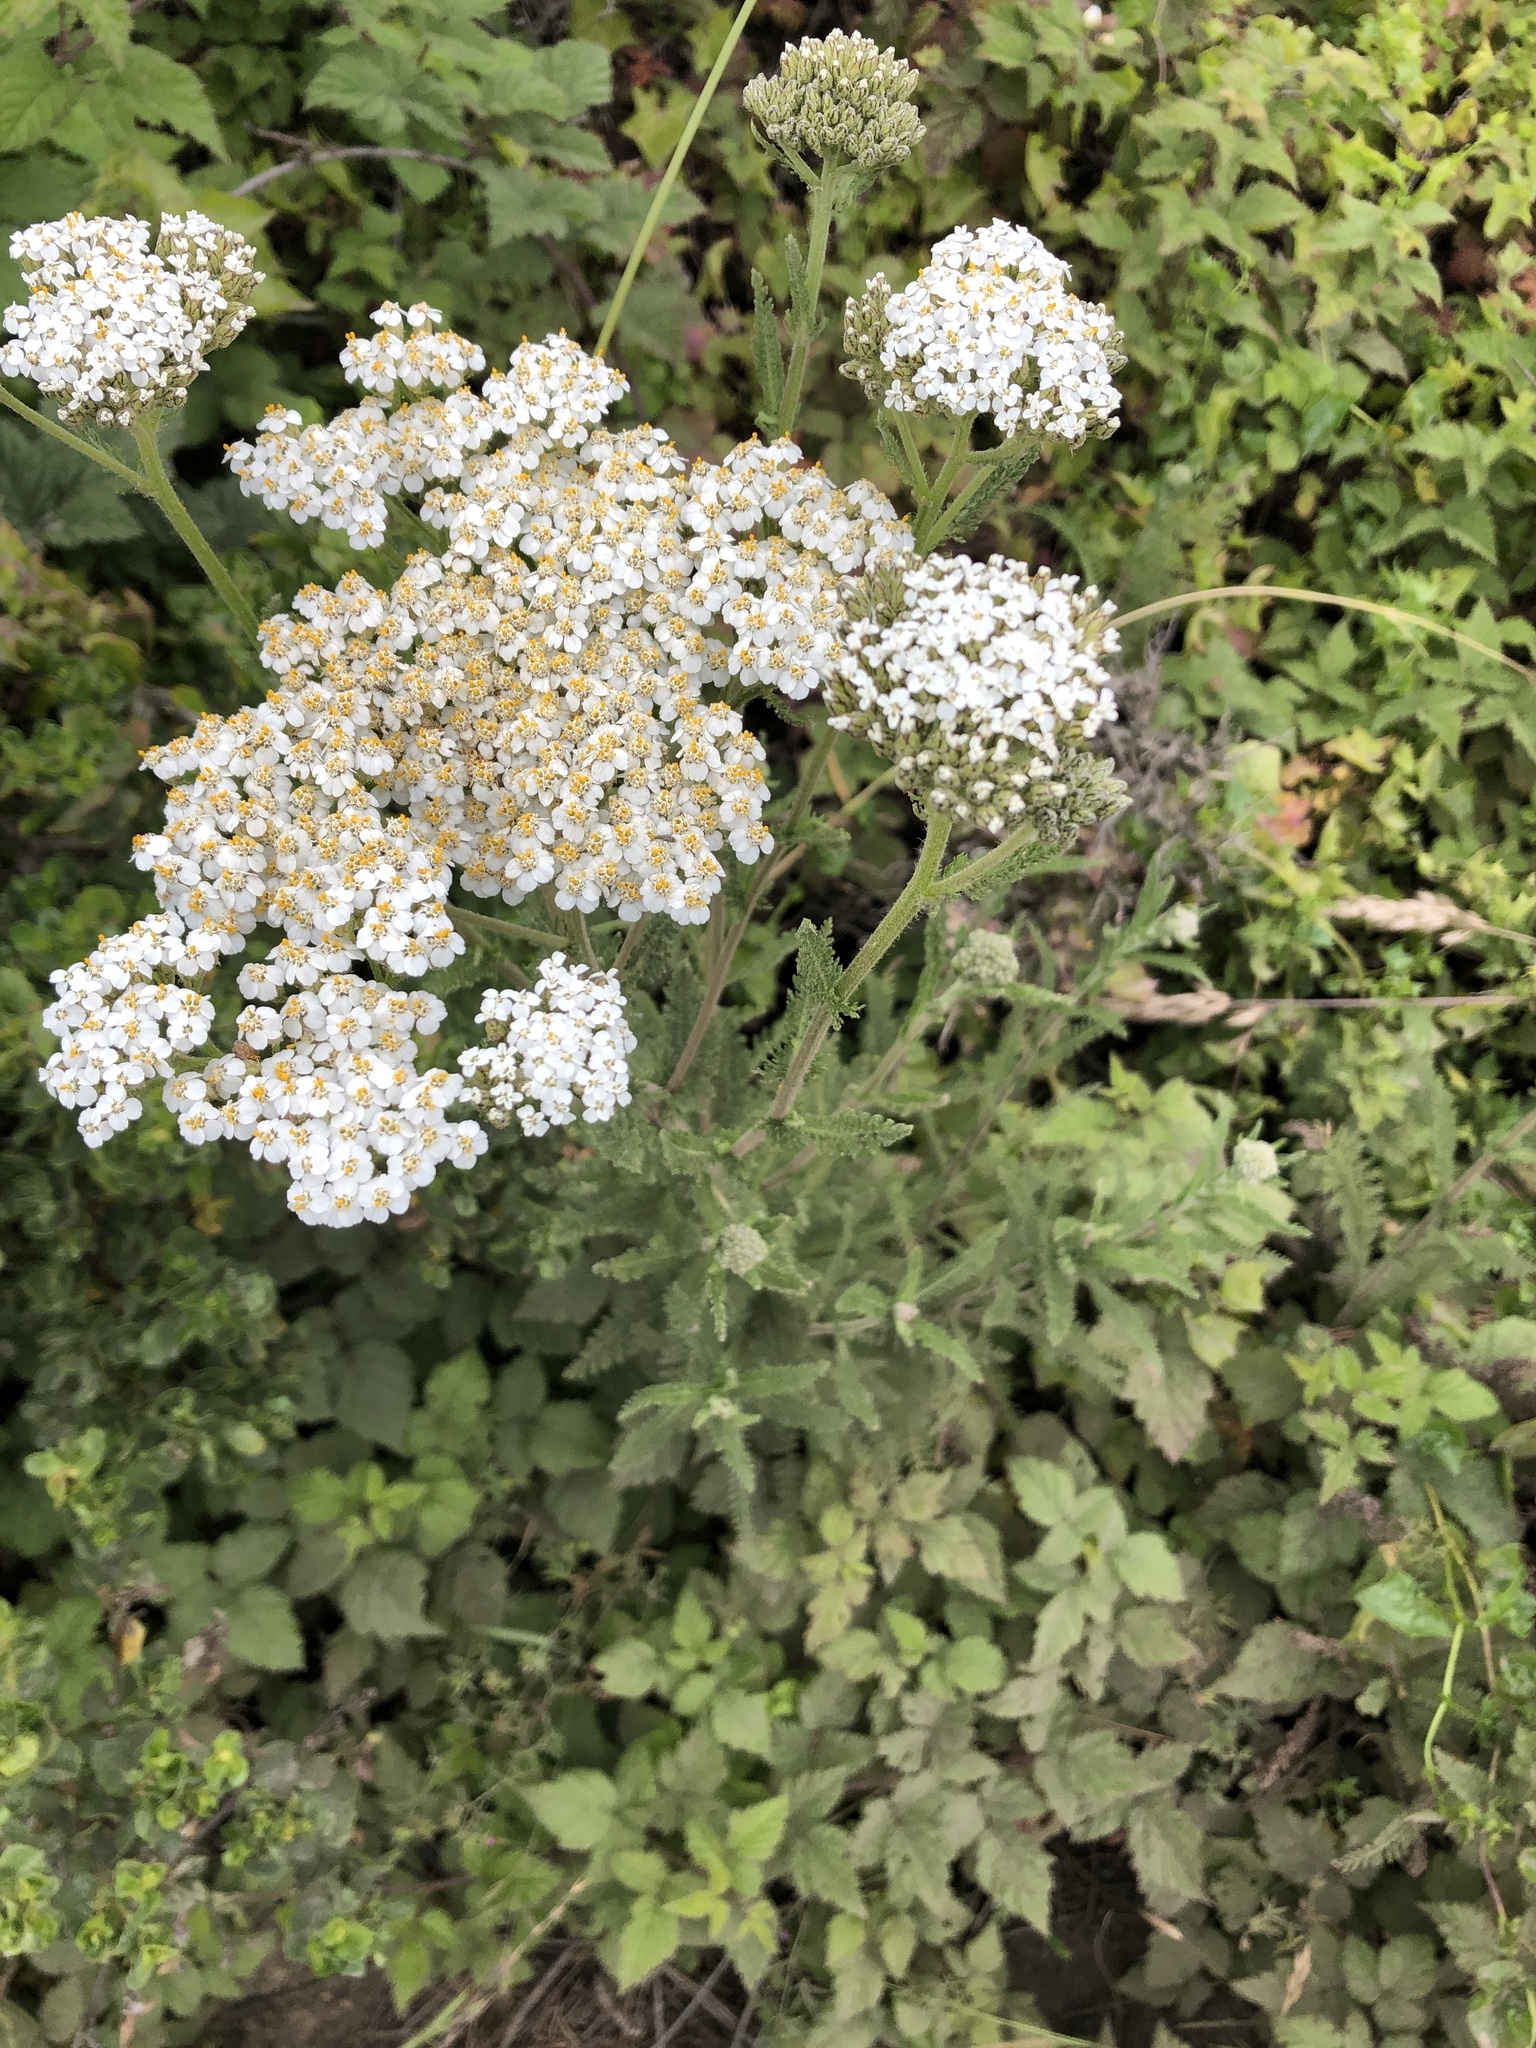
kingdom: Plantae
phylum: Tracheophyta
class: Magnoliopsida
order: Asterales
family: Asteraceae
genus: Achillea
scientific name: Achillea millefolium
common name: Yarrow
